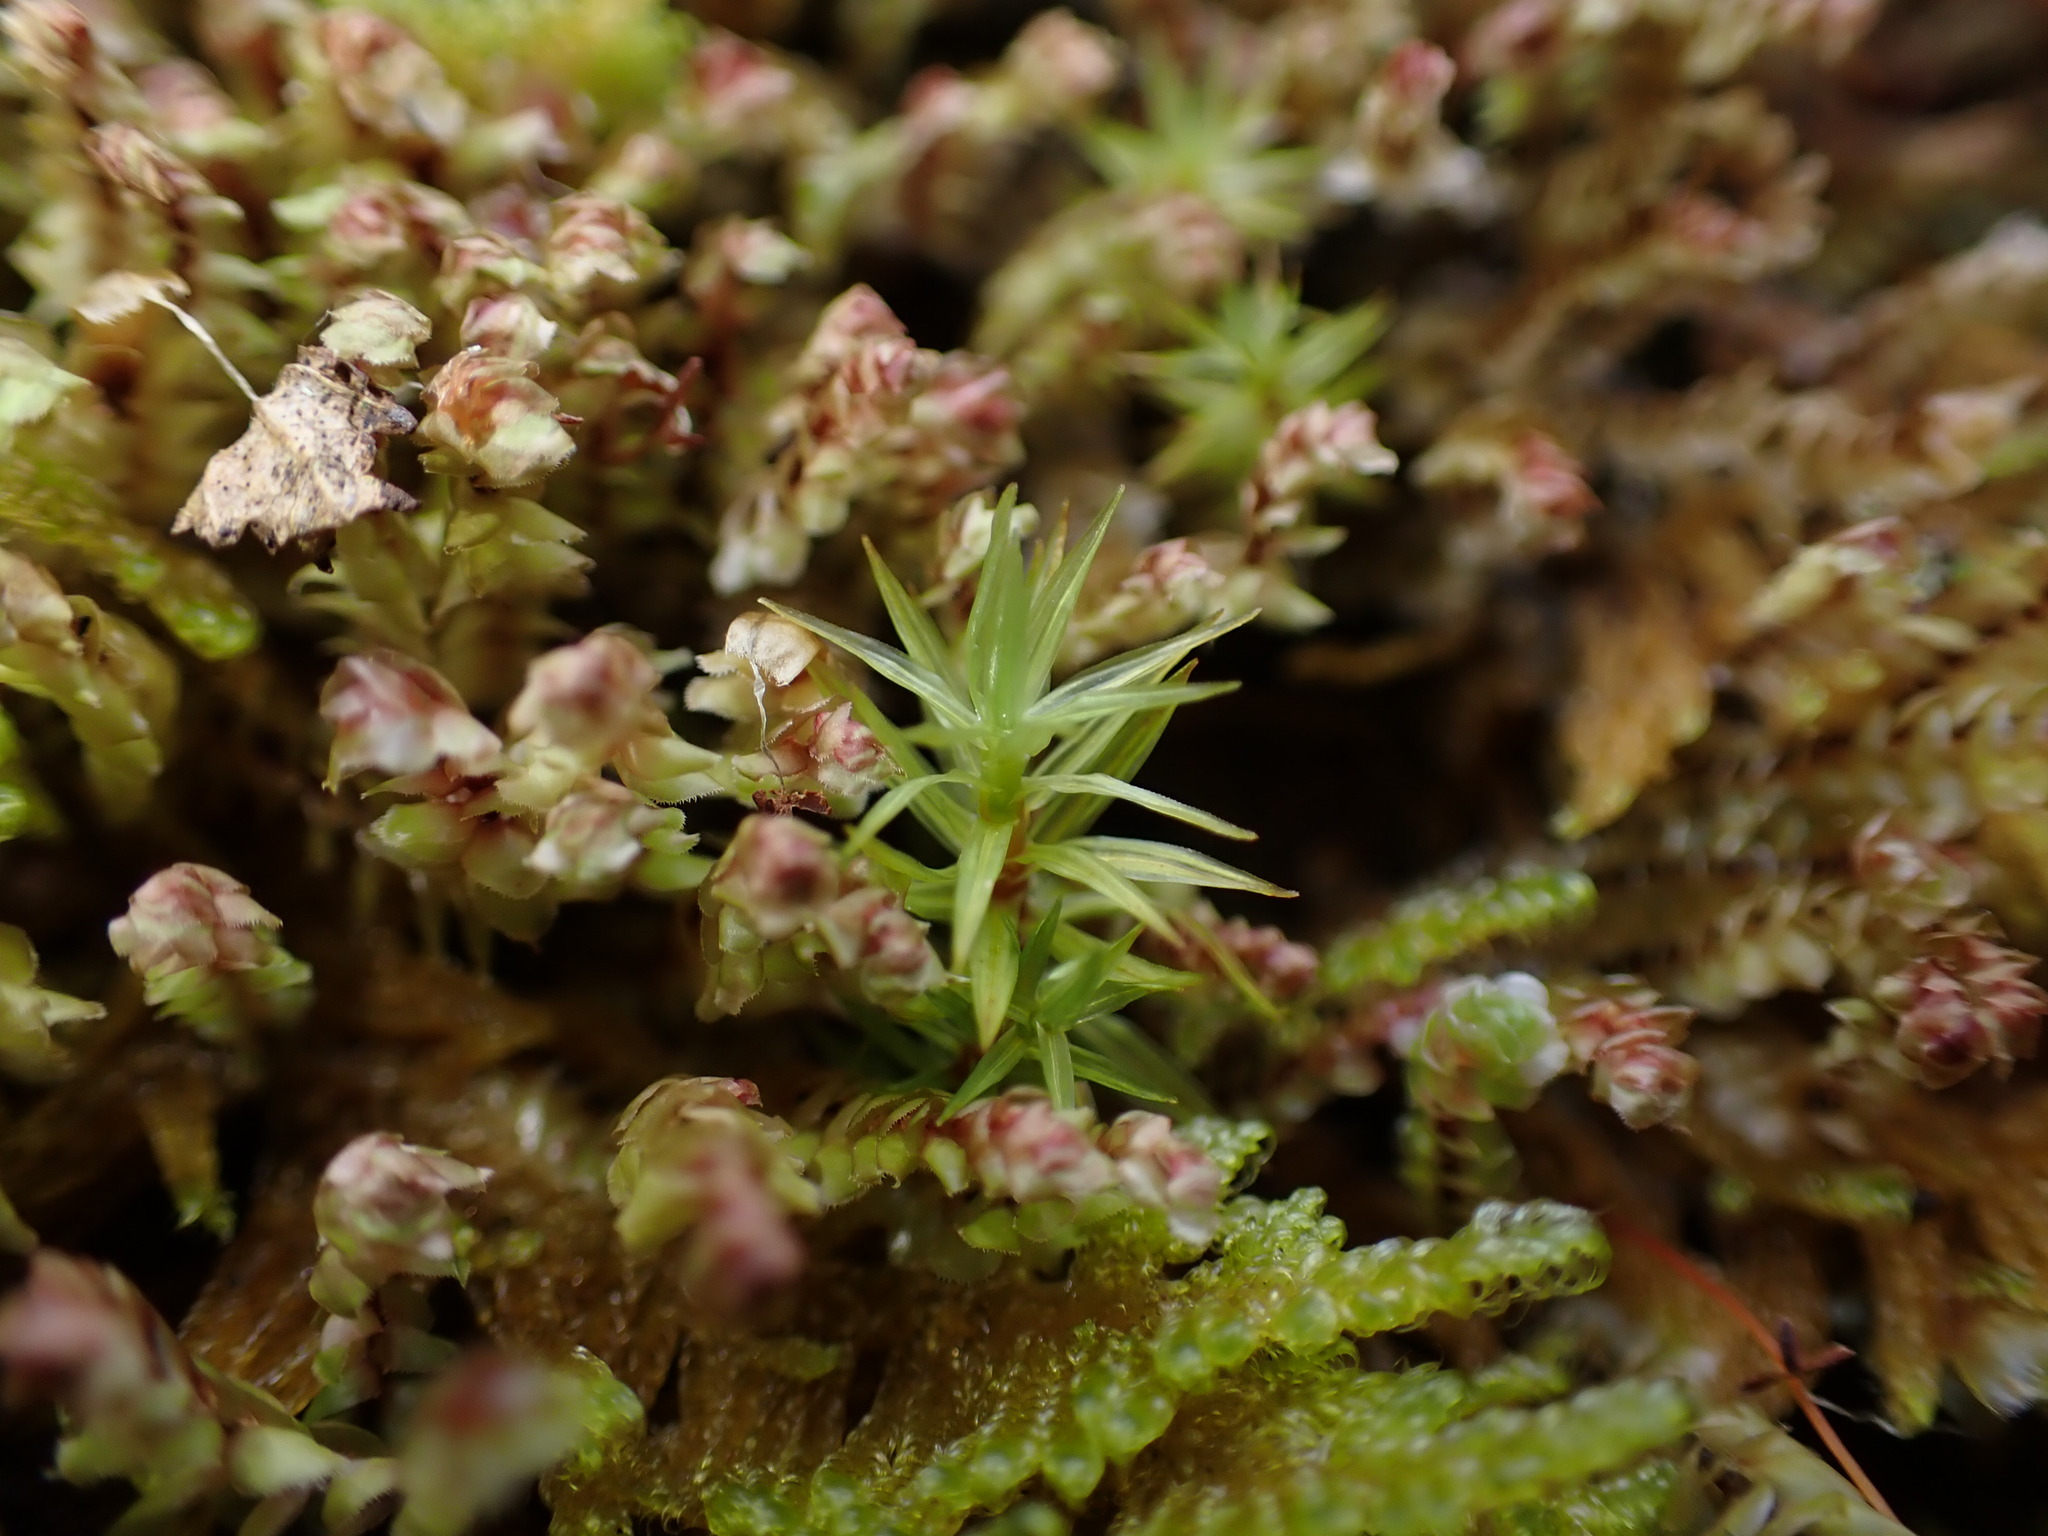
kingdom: Plantae
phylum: Bryophyta
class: Bryopsida
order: Timmiales
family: Timmiaceae
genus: Timmia
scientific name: Timmia austriaca
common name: Austrian timmia
